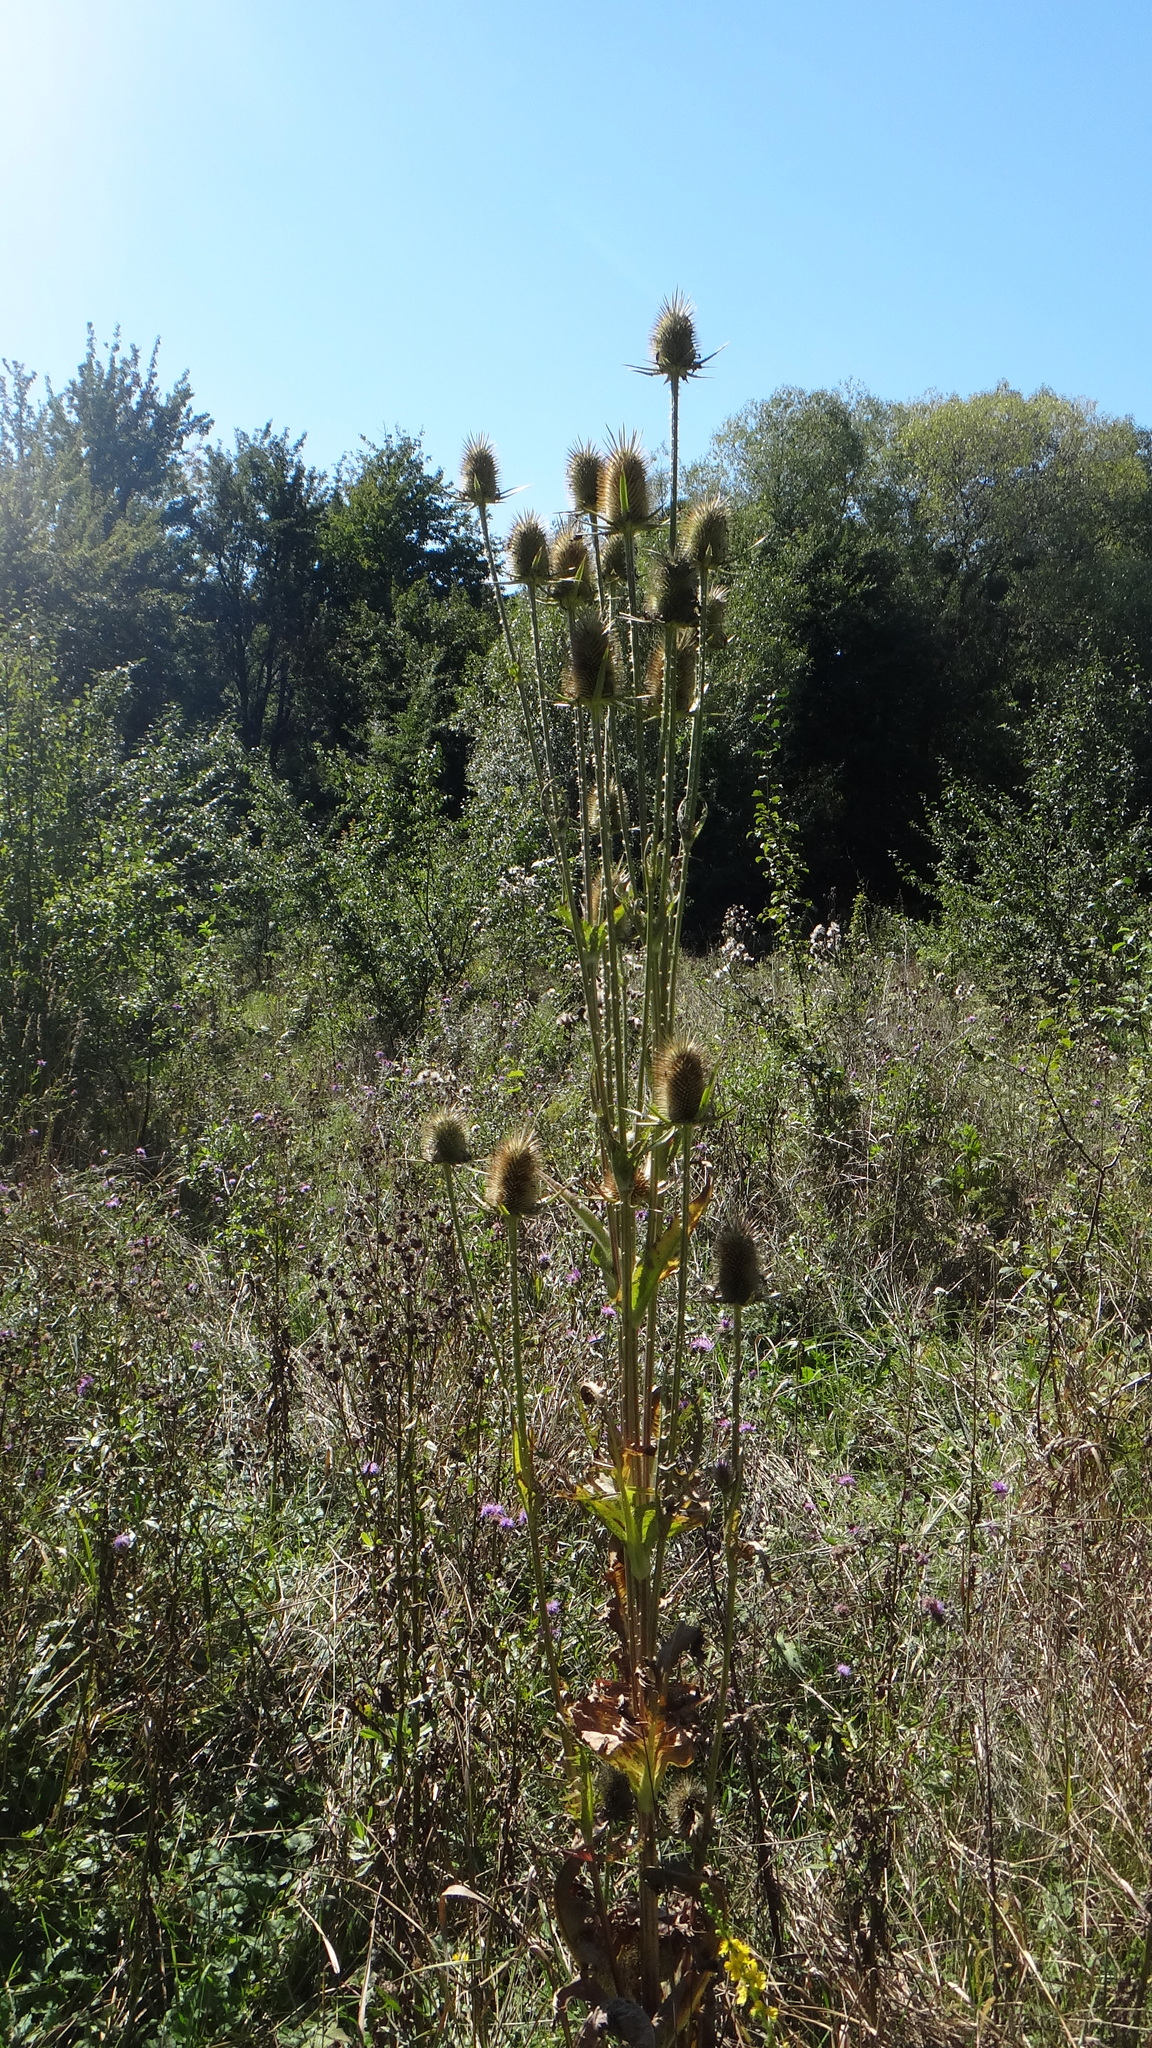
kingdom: Plantae
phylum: Tracheophyta
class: Magnoliopsida
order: Dipsacales
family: Caprifoliaceae
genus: Dipsacus
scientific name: Dipsacus laciniatus
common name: Cut-leaved teasel
